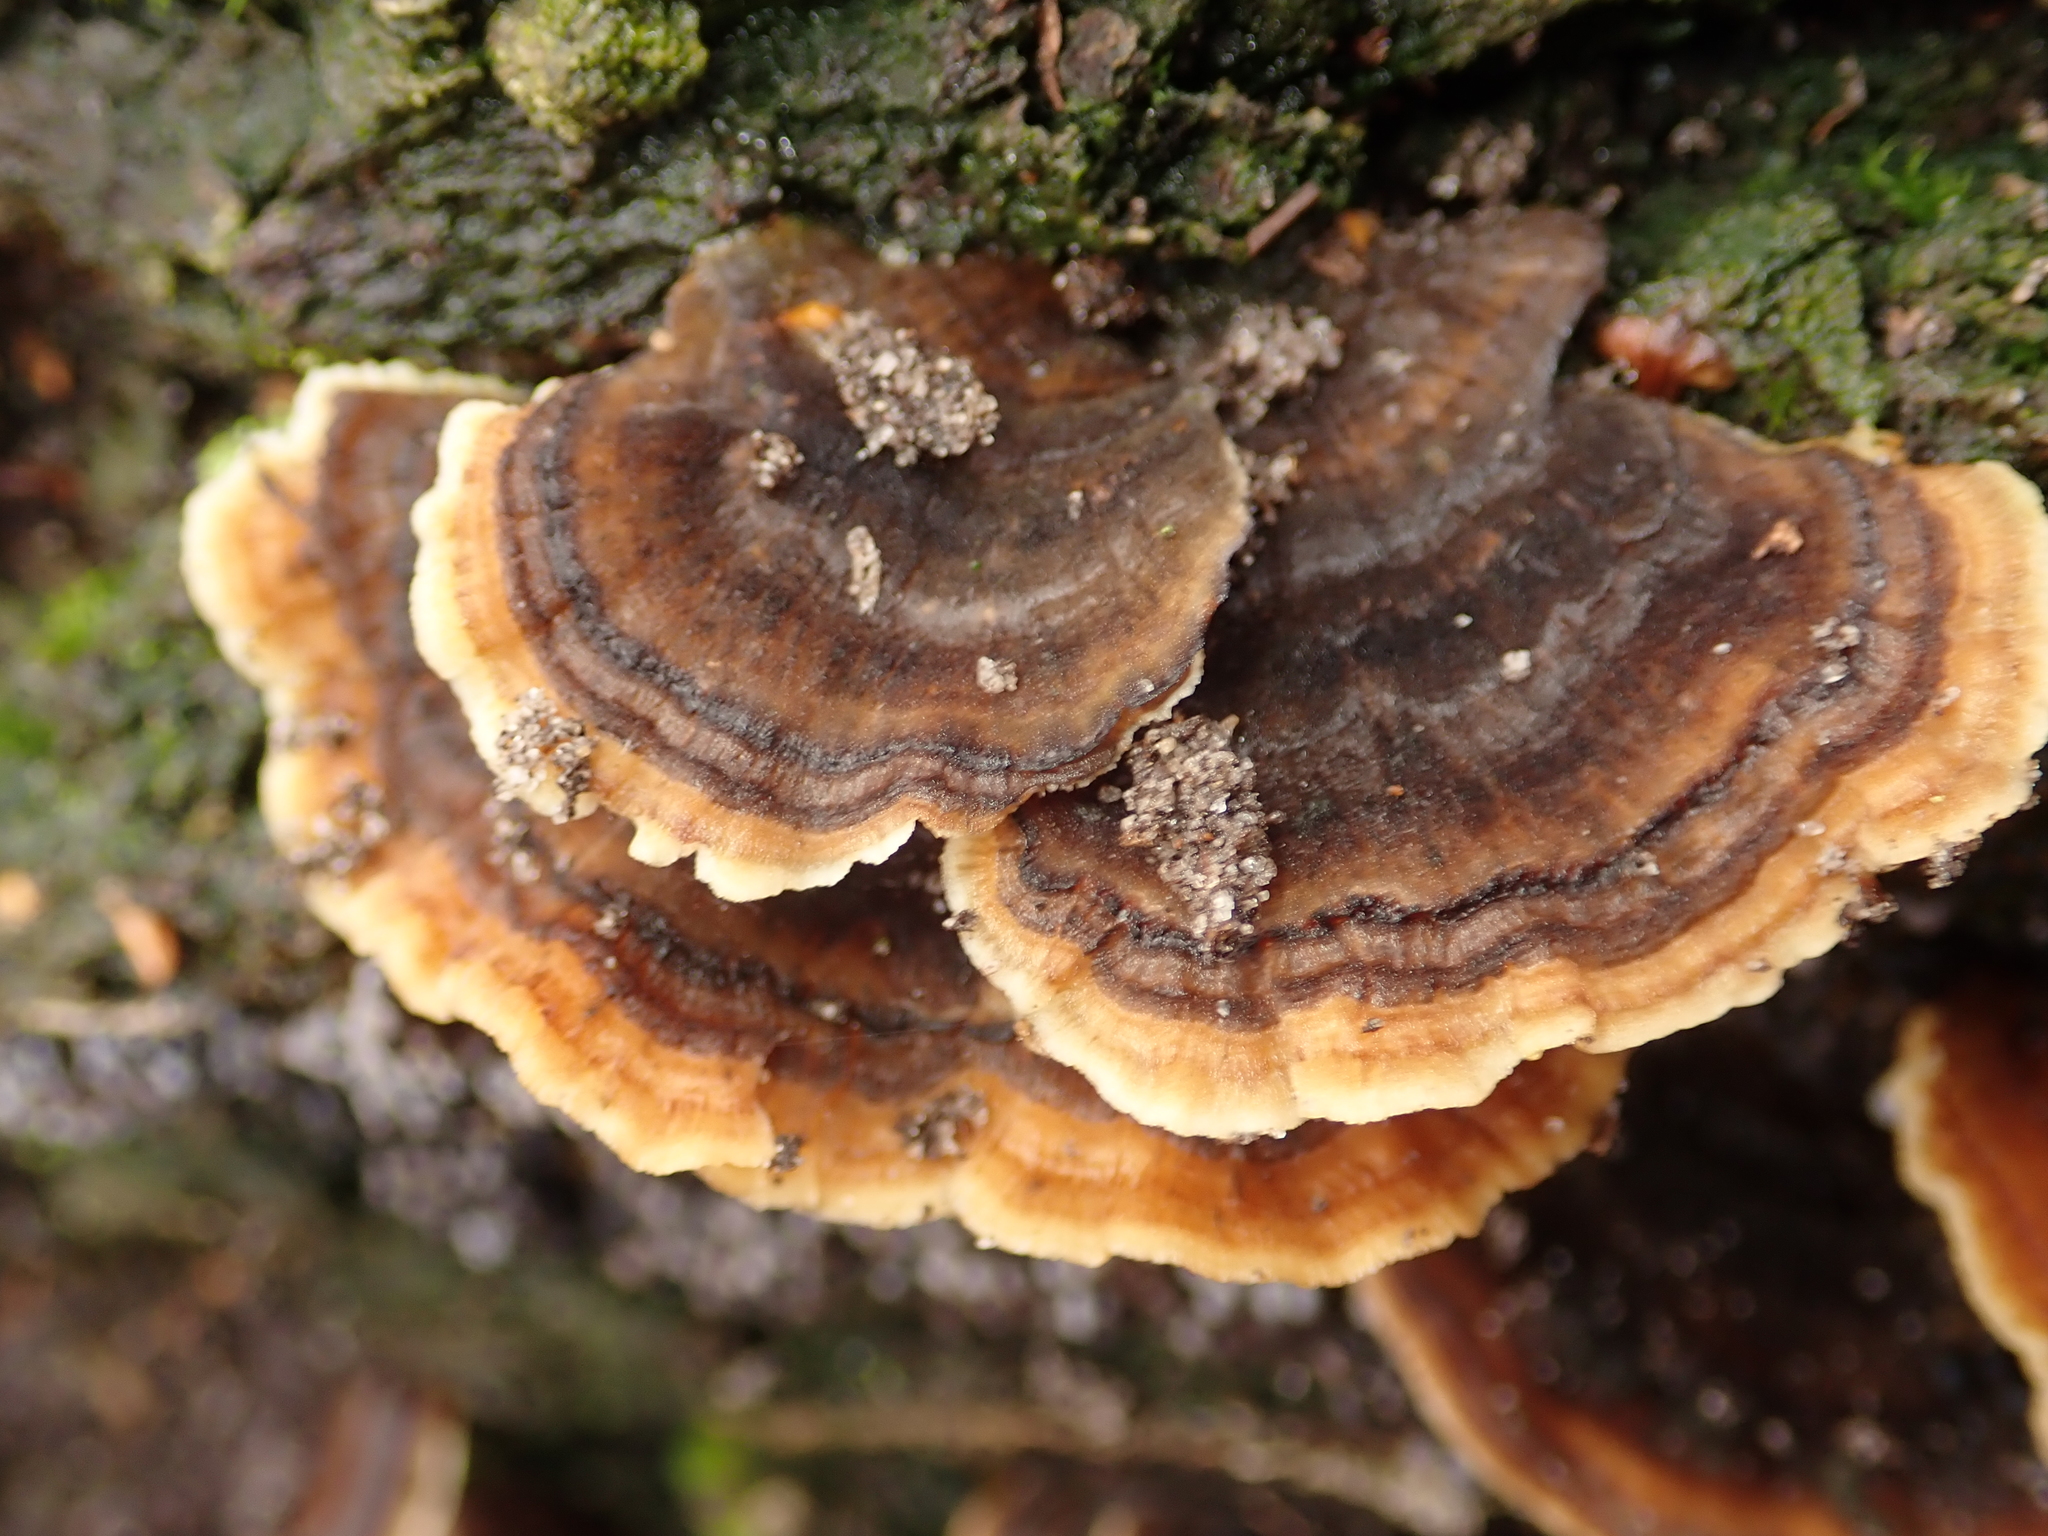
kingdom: Fungi
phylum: Basidiomycota
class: Agaricomycetes
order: Polyporales
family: Polyporaceae
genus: Trametes
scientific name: Trametes versicolor
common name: Turkeytail
